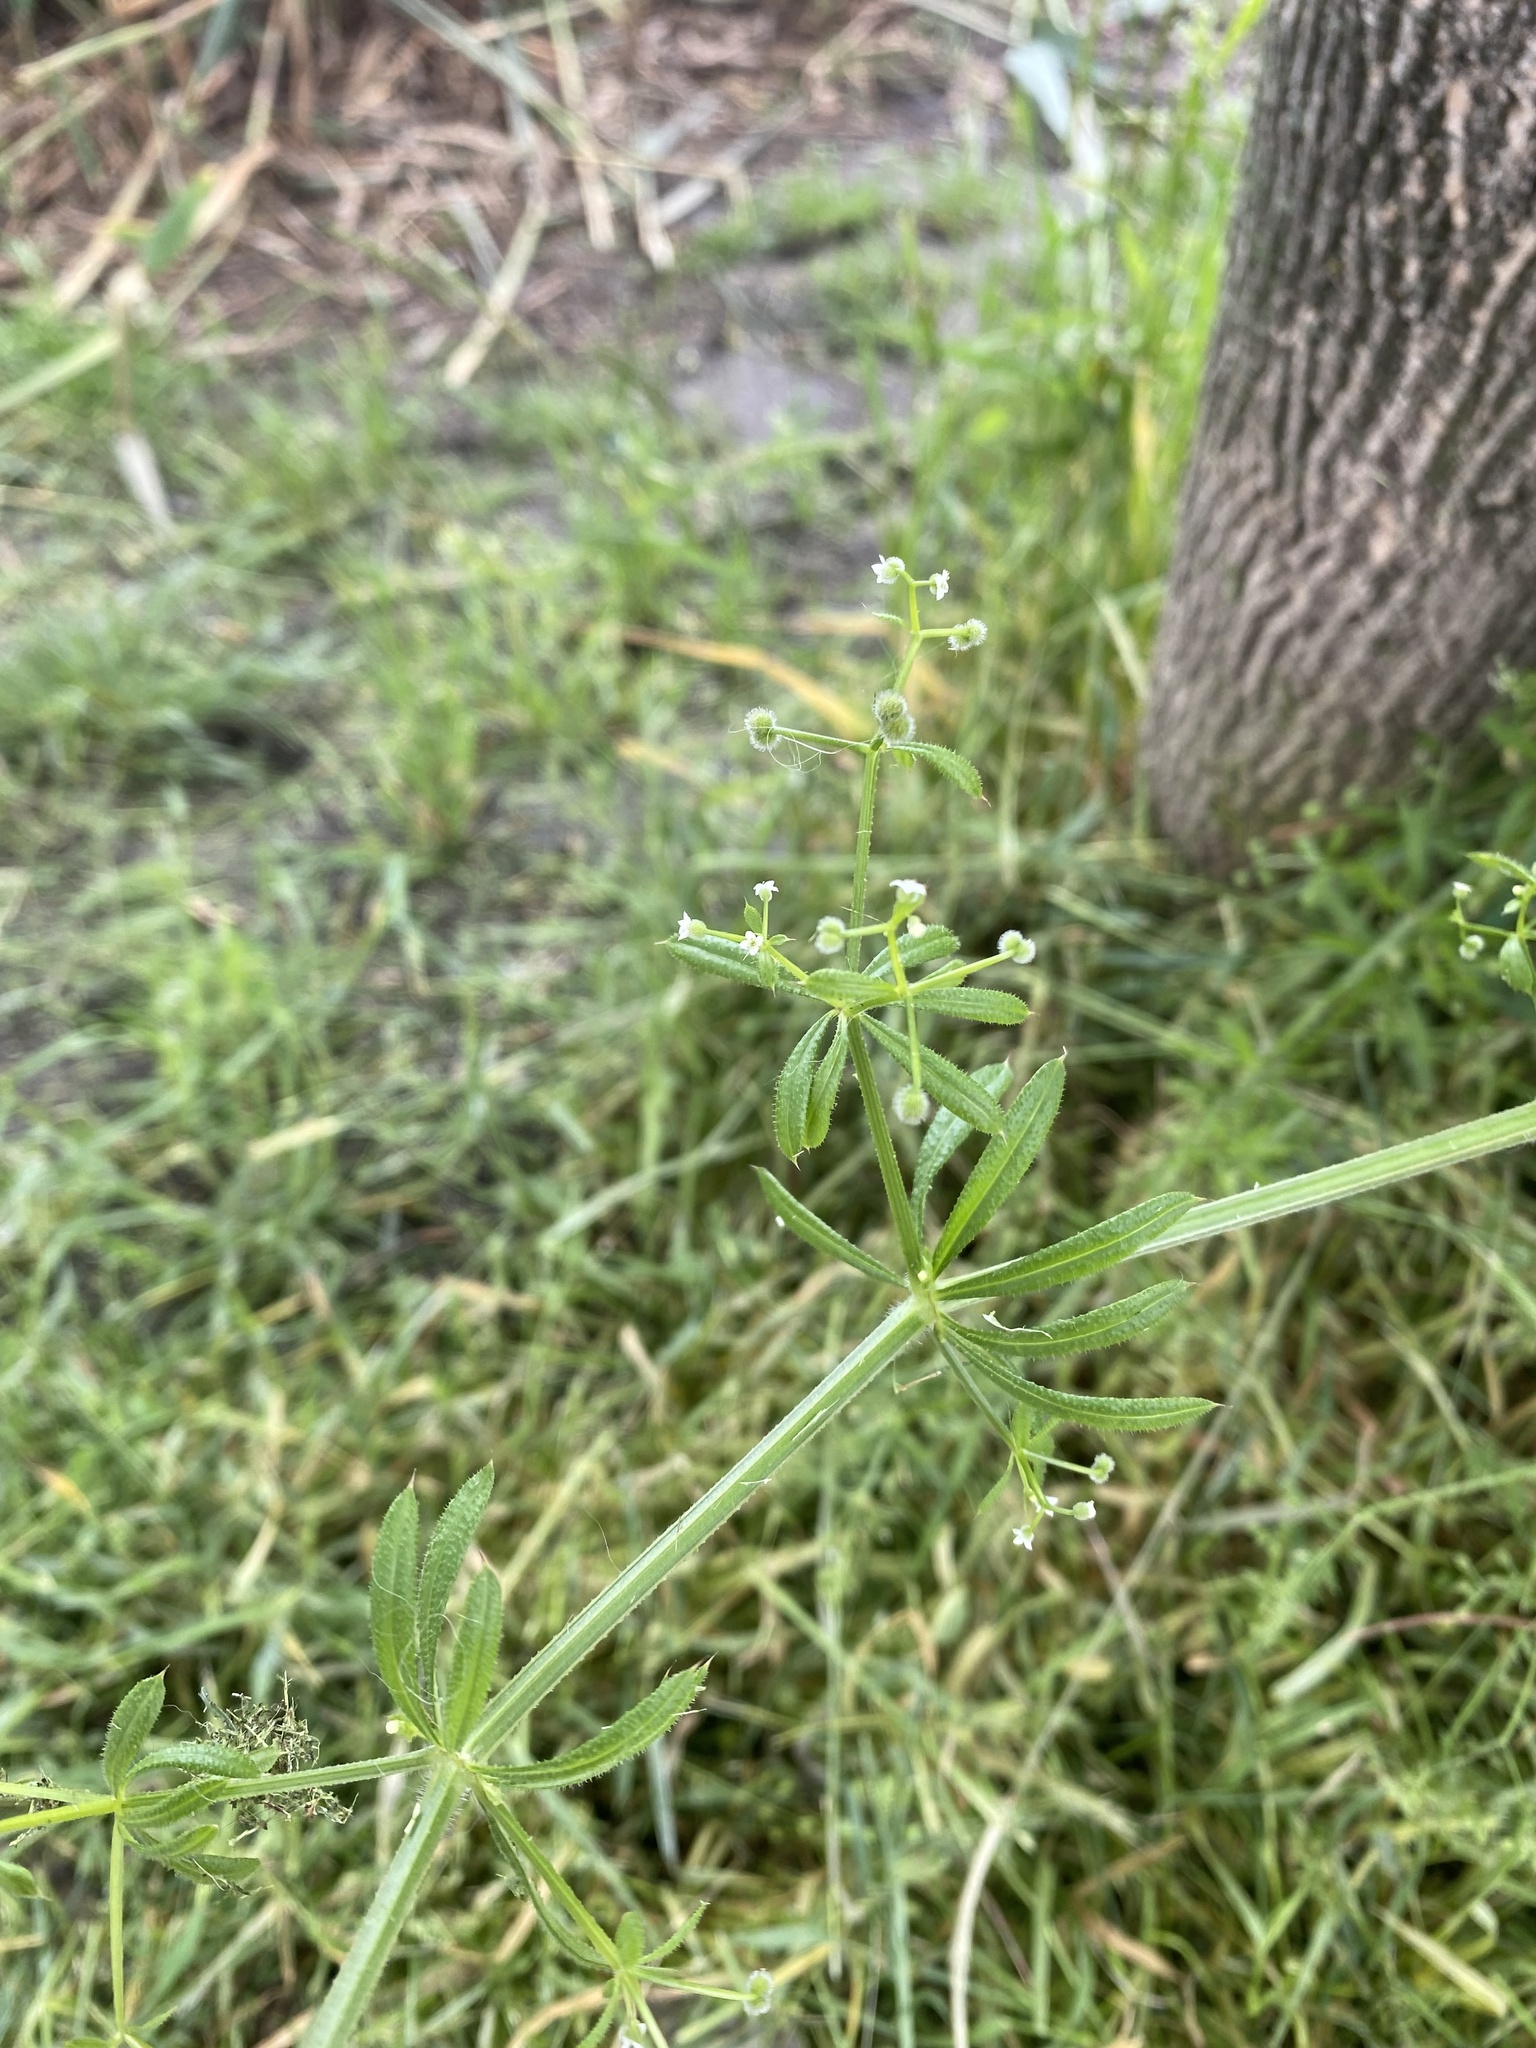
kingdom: Plantae
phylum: Tracheophyta
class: Magnoliopsida
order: Gentianales
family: Rubiaceae
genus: Galium
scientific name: Galium aparine
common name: Cleavers
